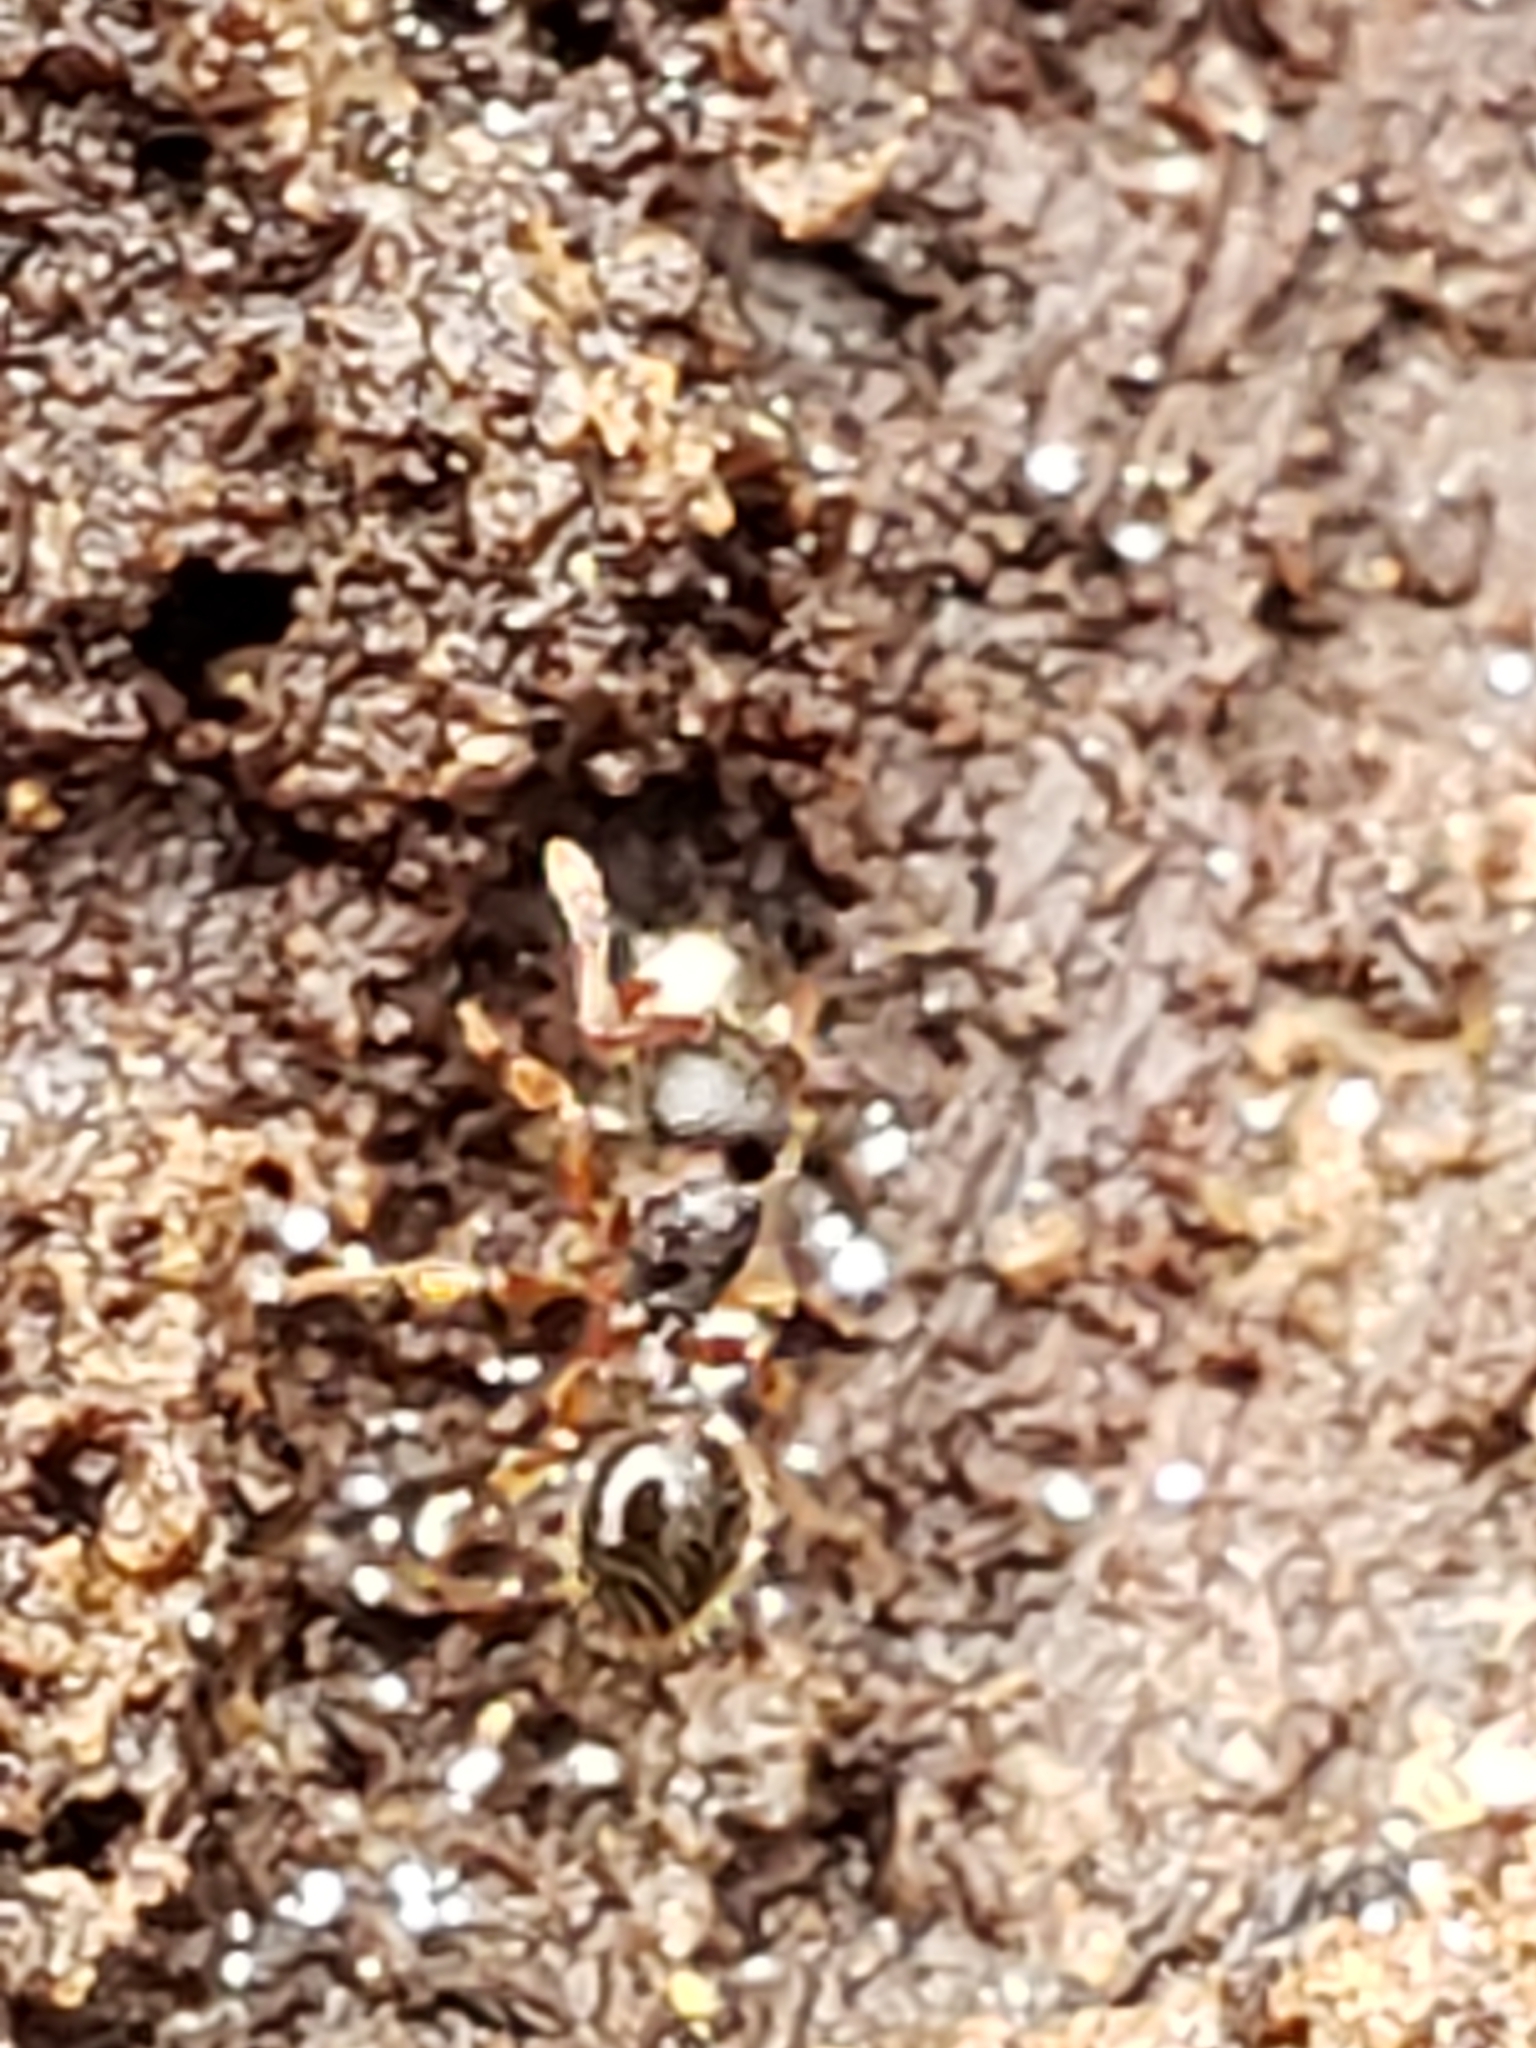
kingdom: Animalia
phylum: Arthropoda
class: Insecta
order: Hymenoptera
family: Formicidae
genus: Myrmecina
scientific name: Myrmecina americana
